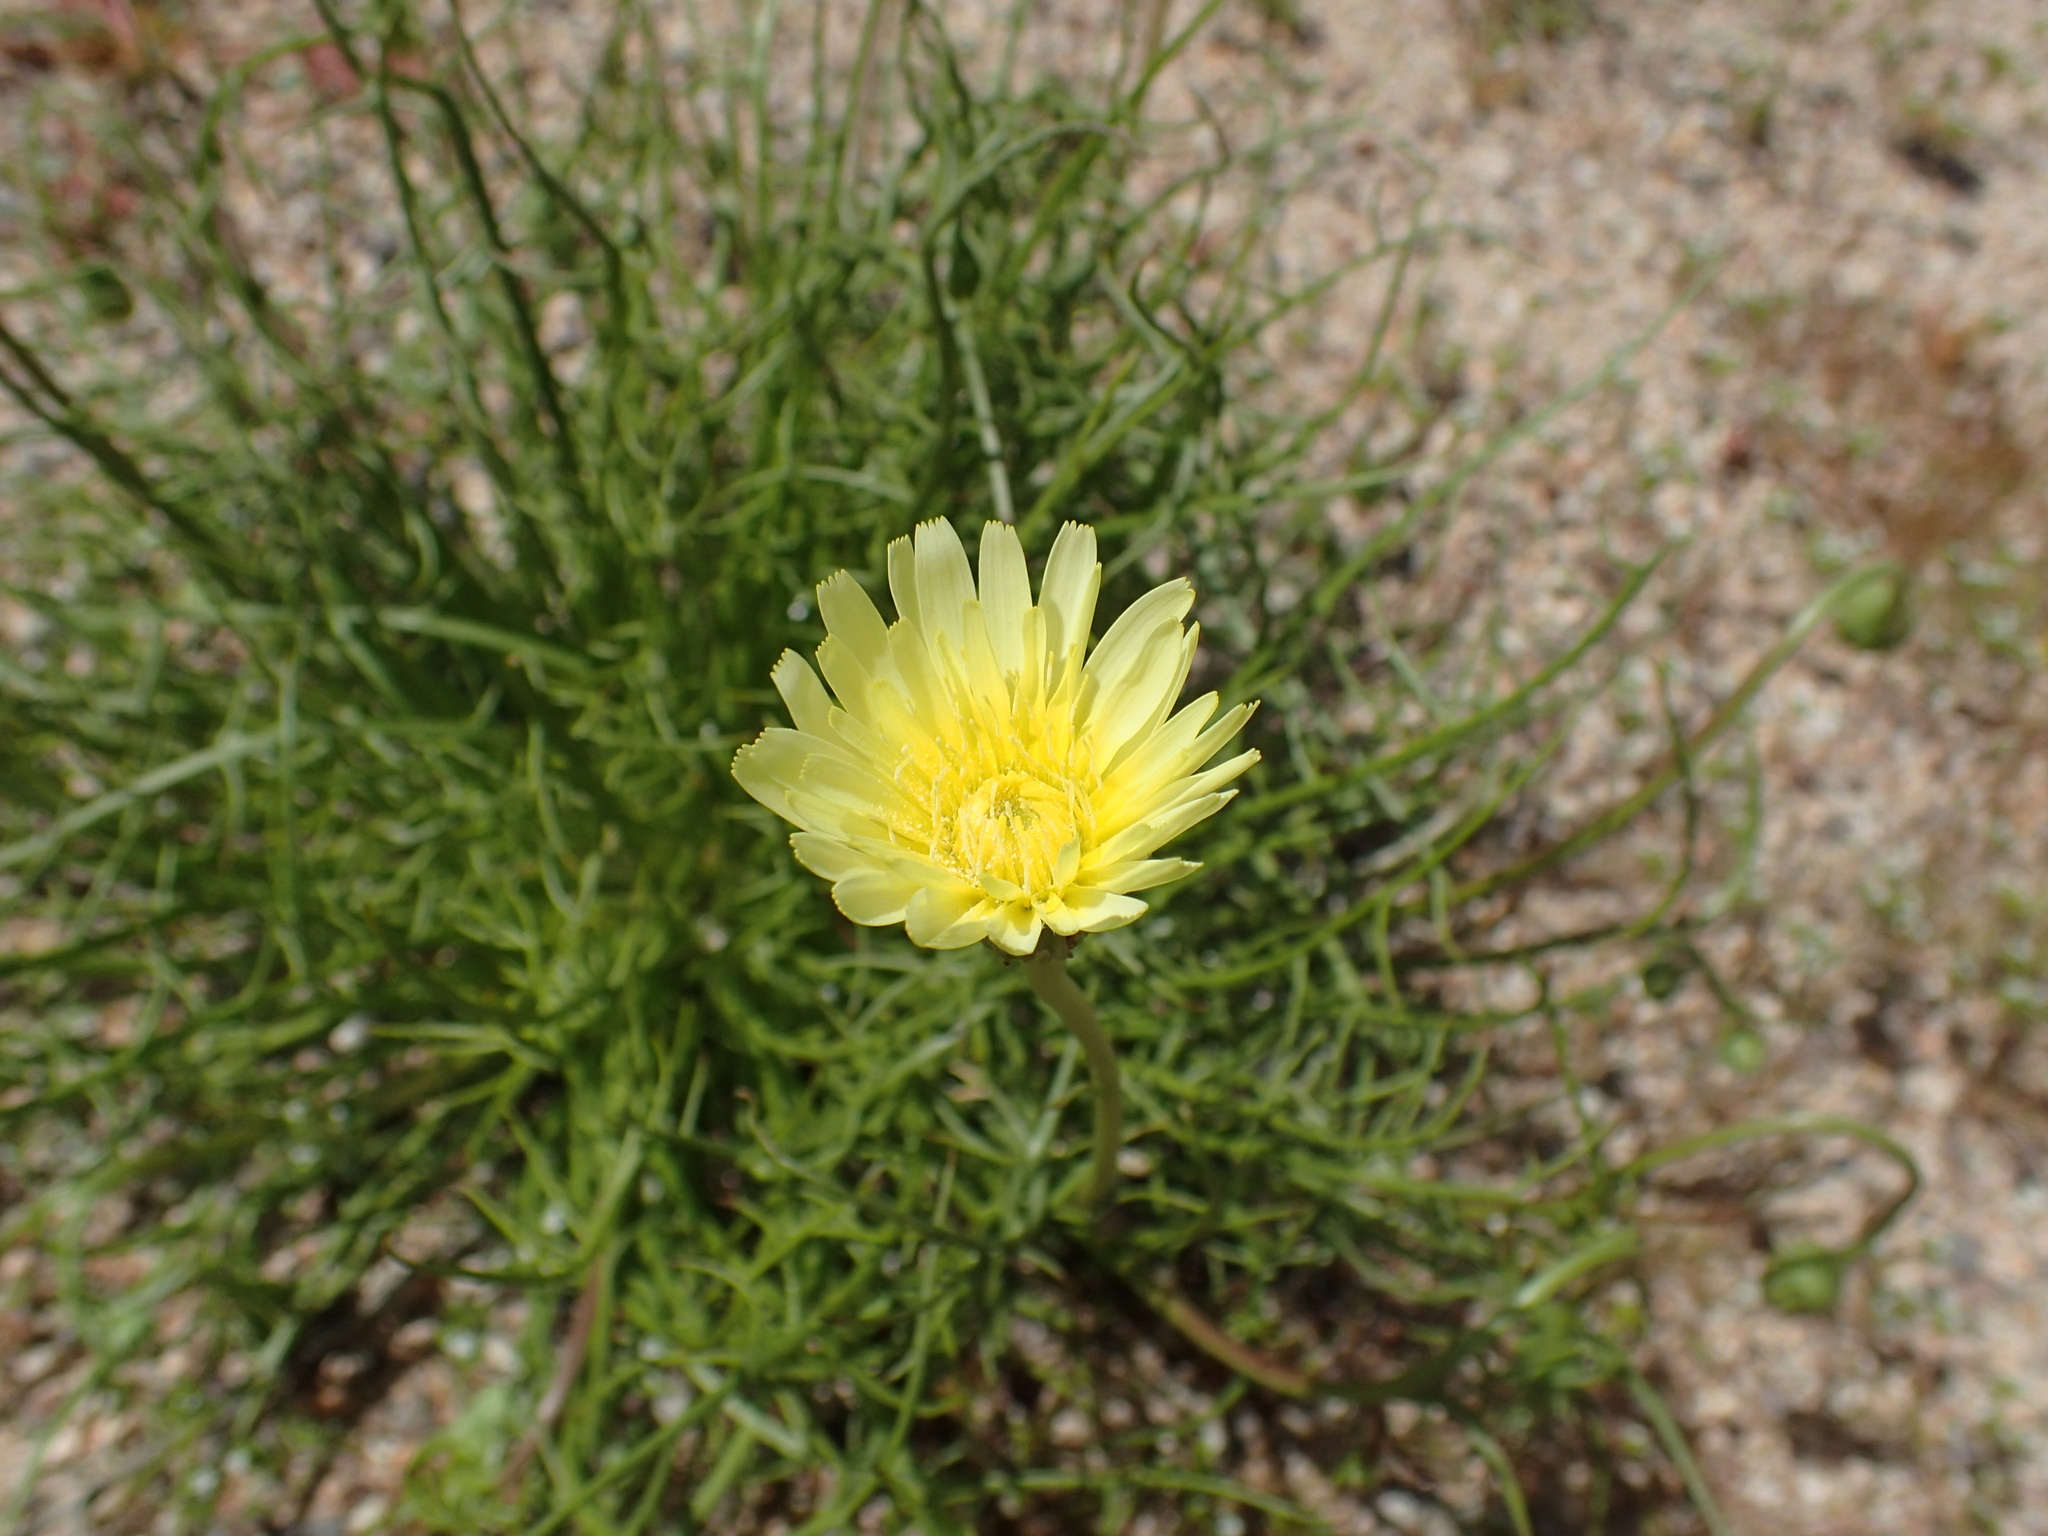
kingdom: Plantae
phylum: Tracheophyta
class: Magnoliopsida
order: Asterales
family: Asteraceae
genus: Malacothrix
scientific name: Malacothrix glabrata
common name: Smooth desert-dandelion
